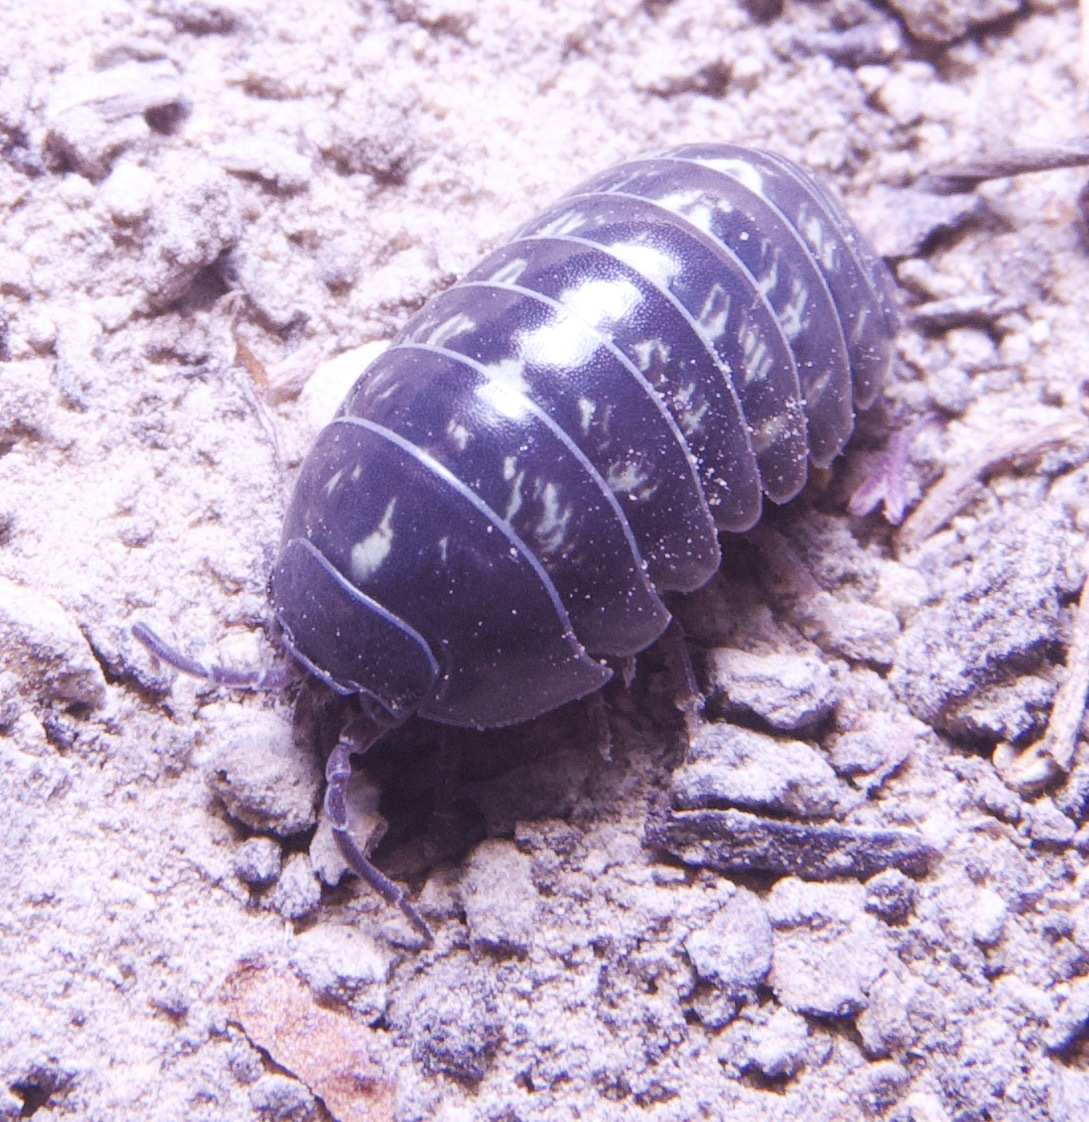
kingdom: Animalia
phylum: Arthropoda
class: Malacostraca
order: Isopoda
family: Armadillidiidae
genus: Armadillidium
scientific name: Armadillidium vulgare
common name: Common pill woodlouse
